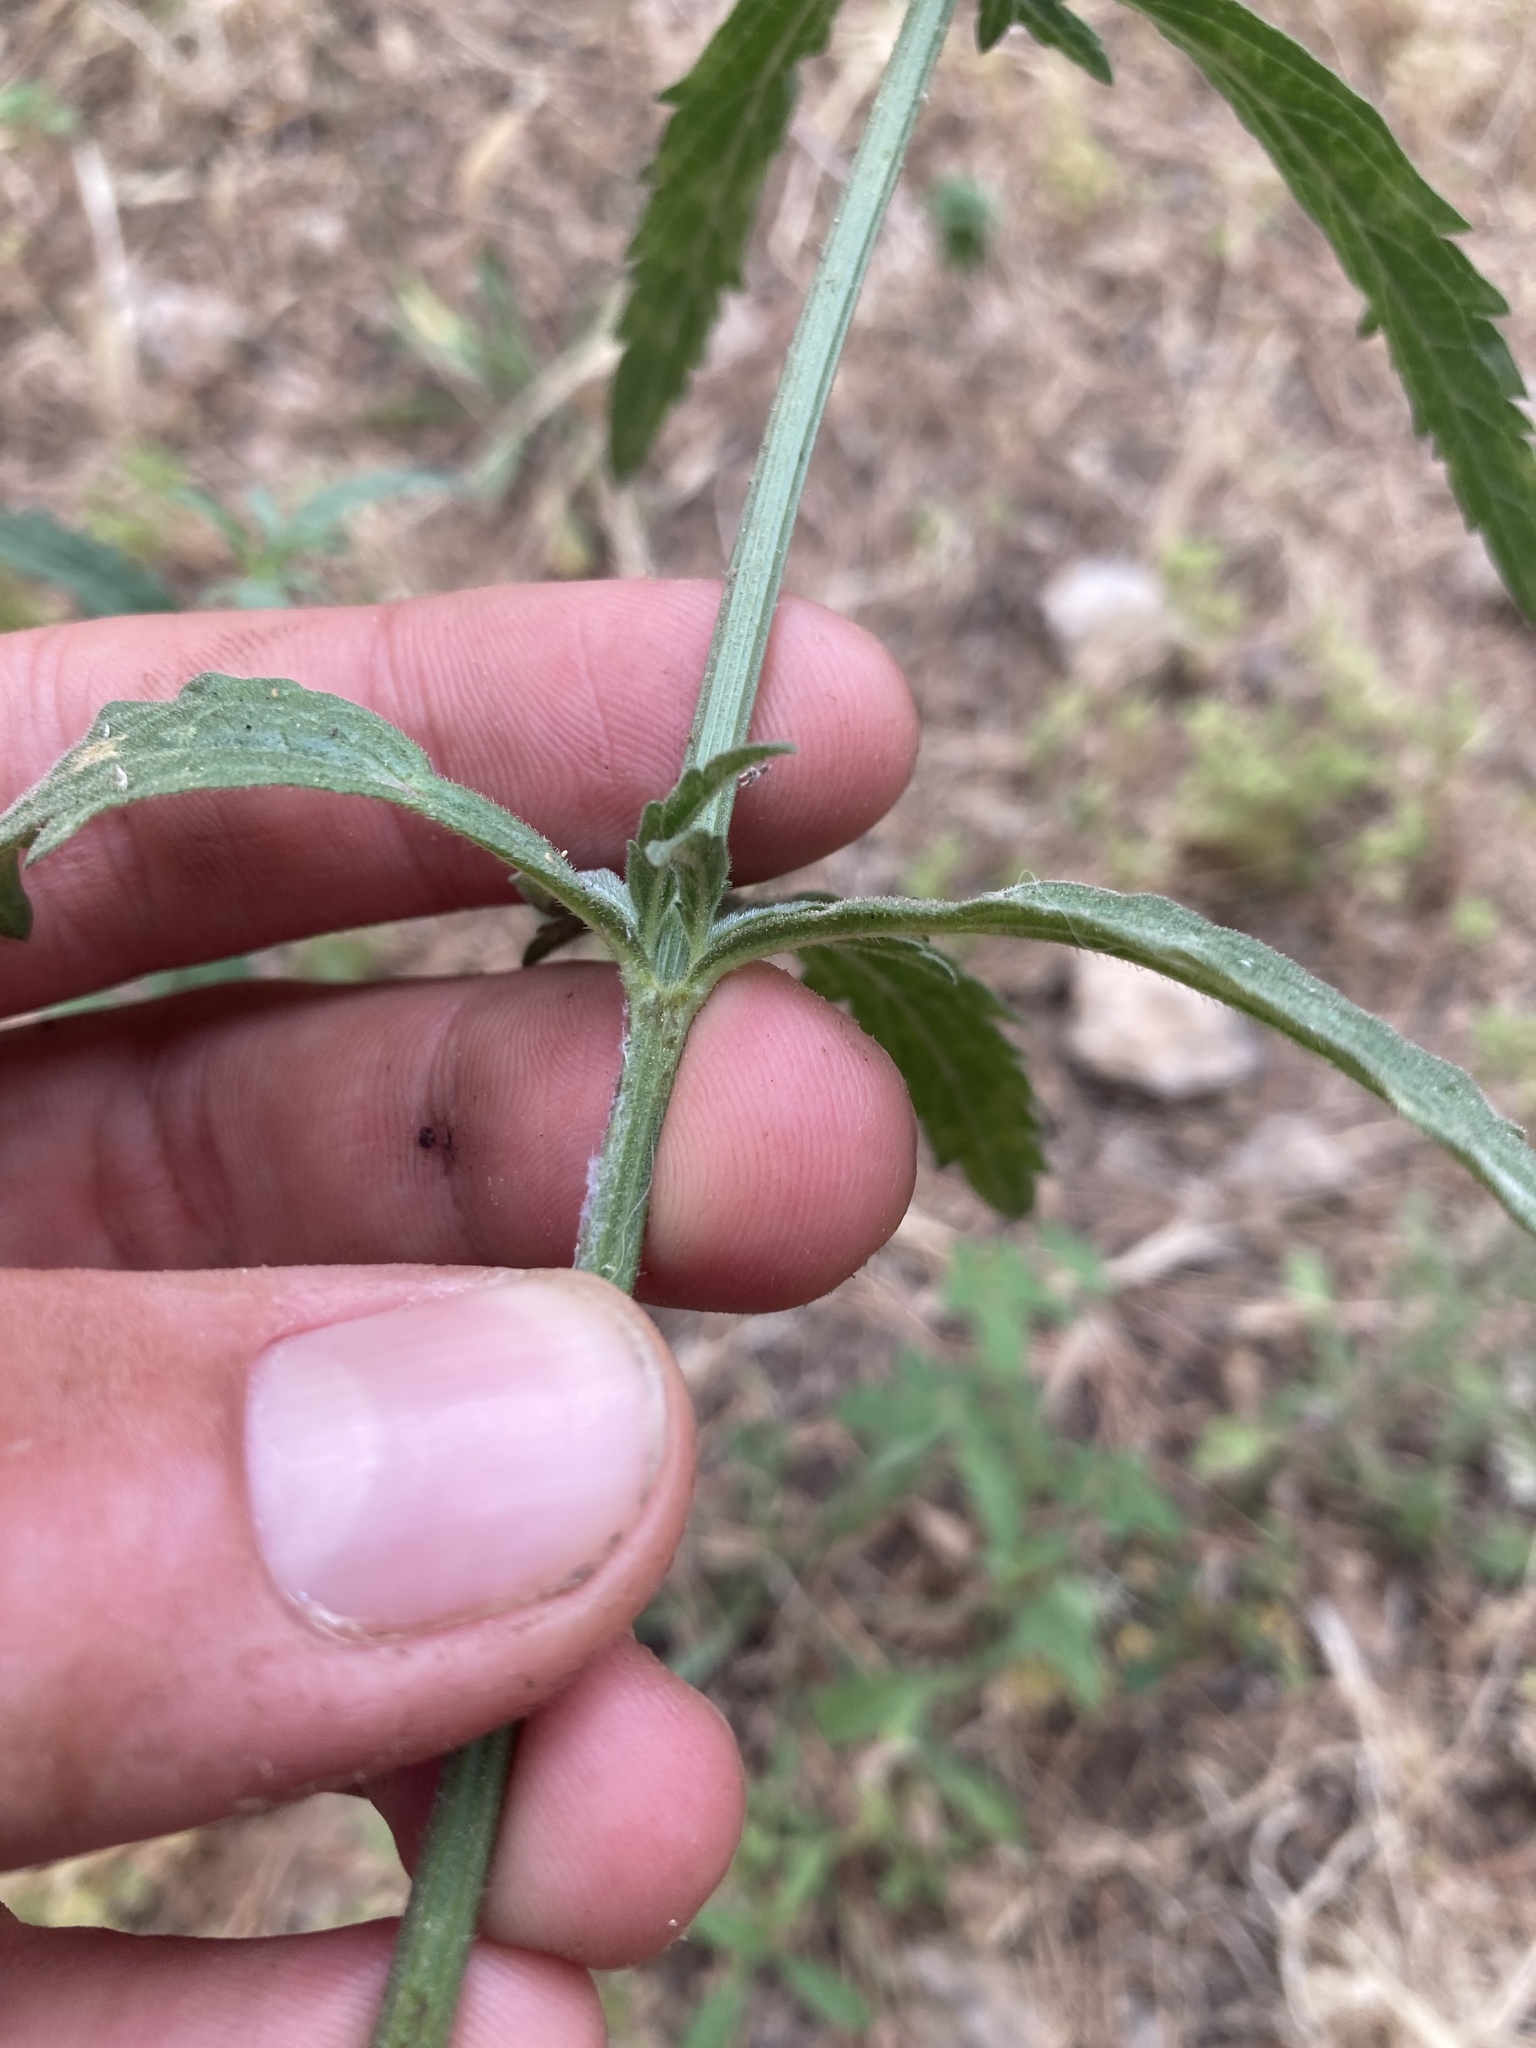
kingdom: Plantae
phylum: Tracheophyta
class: Magnoliopsida
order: Lamiales
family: Verbenaceae
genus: Verbena
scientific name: Verbena officinalis
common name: Vervain
